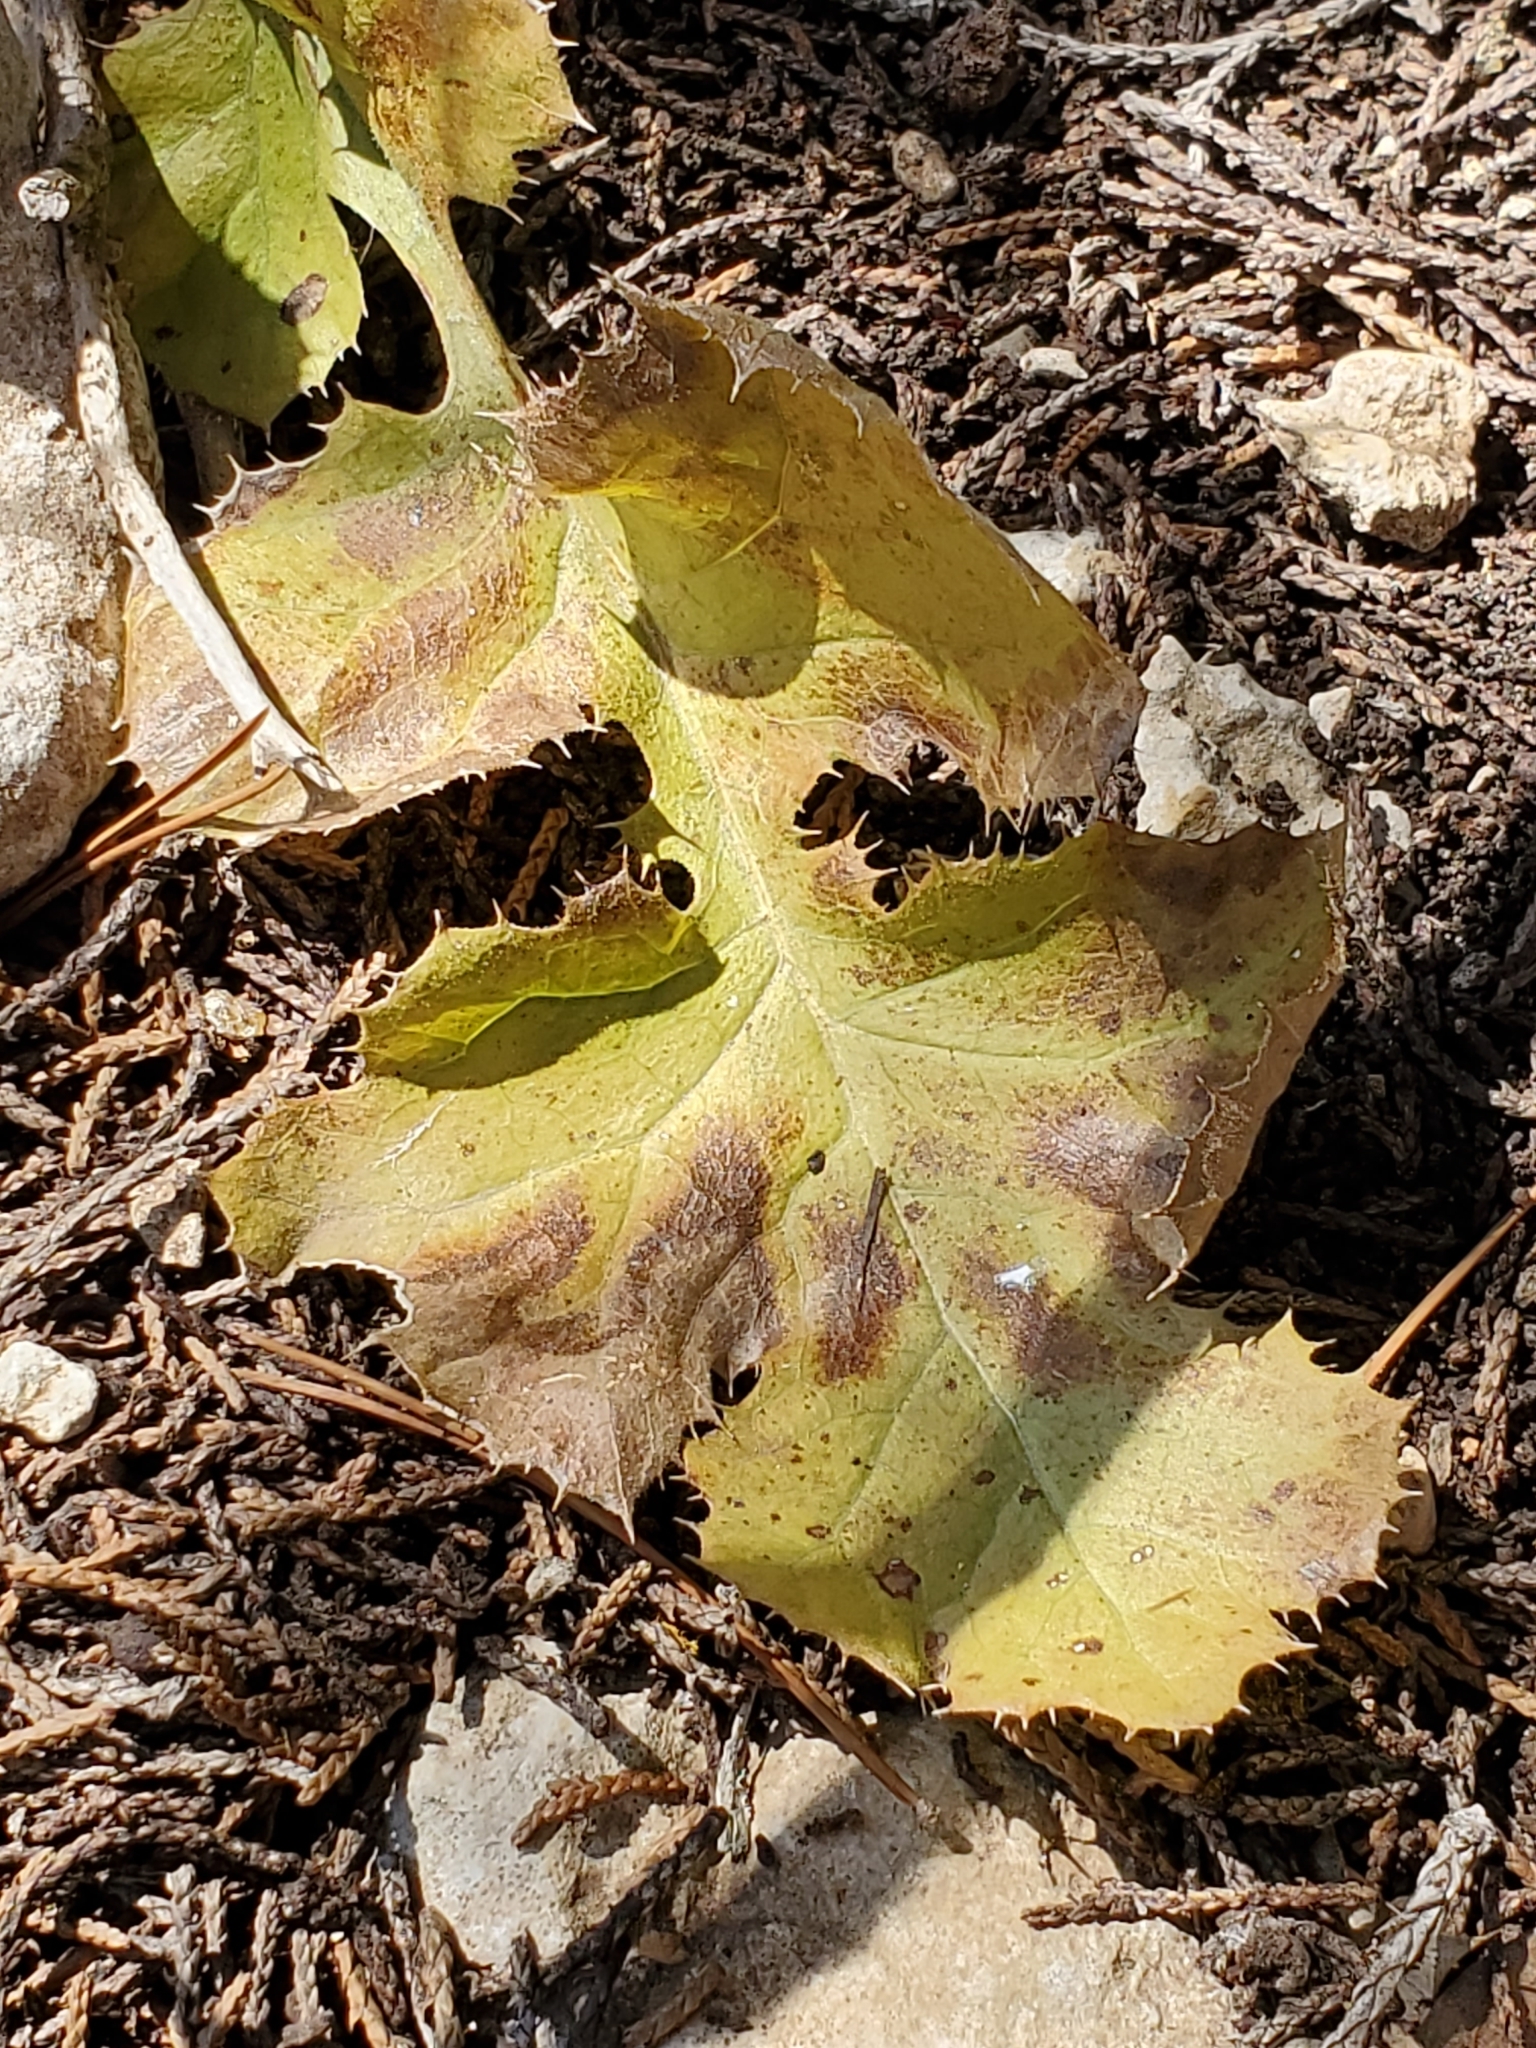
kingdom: Plantae
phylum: Tracheophyta
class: Magnoliopsida
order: Asterales
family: Asteraceae
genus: Acourtia
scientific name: Acourtia runcinata
